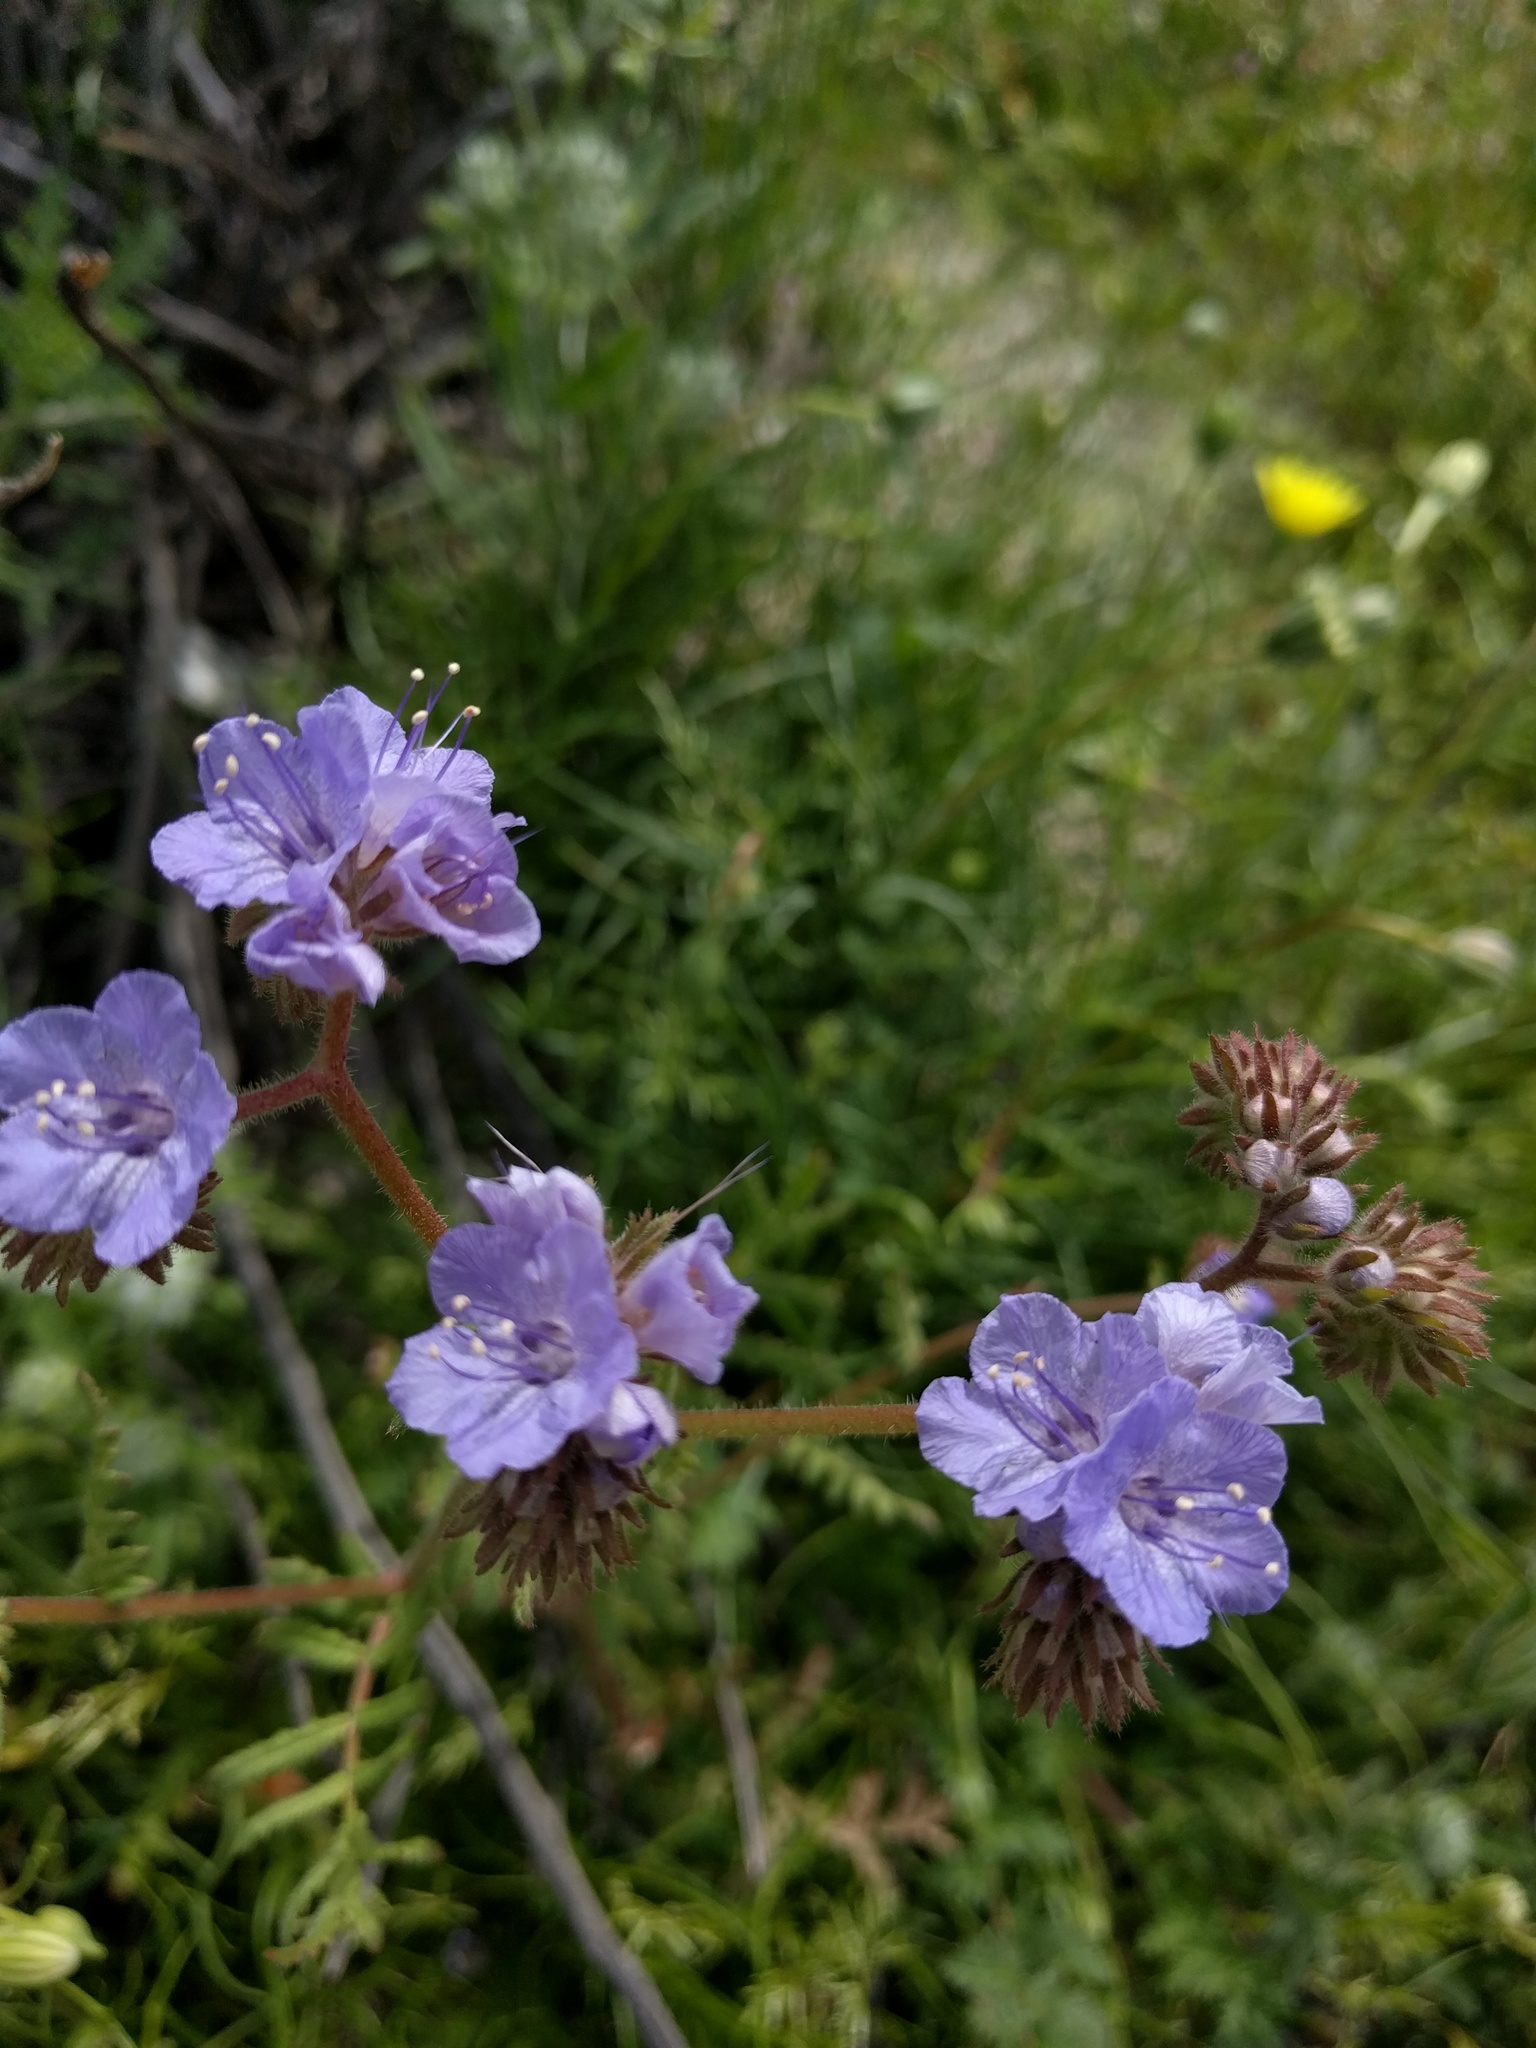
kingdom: Plantae
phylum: Tracheophyta
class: Magnoliopsida
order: Boraginales
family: Hydrophyllaceae
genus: Phacelia
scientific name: Phacelia distans
